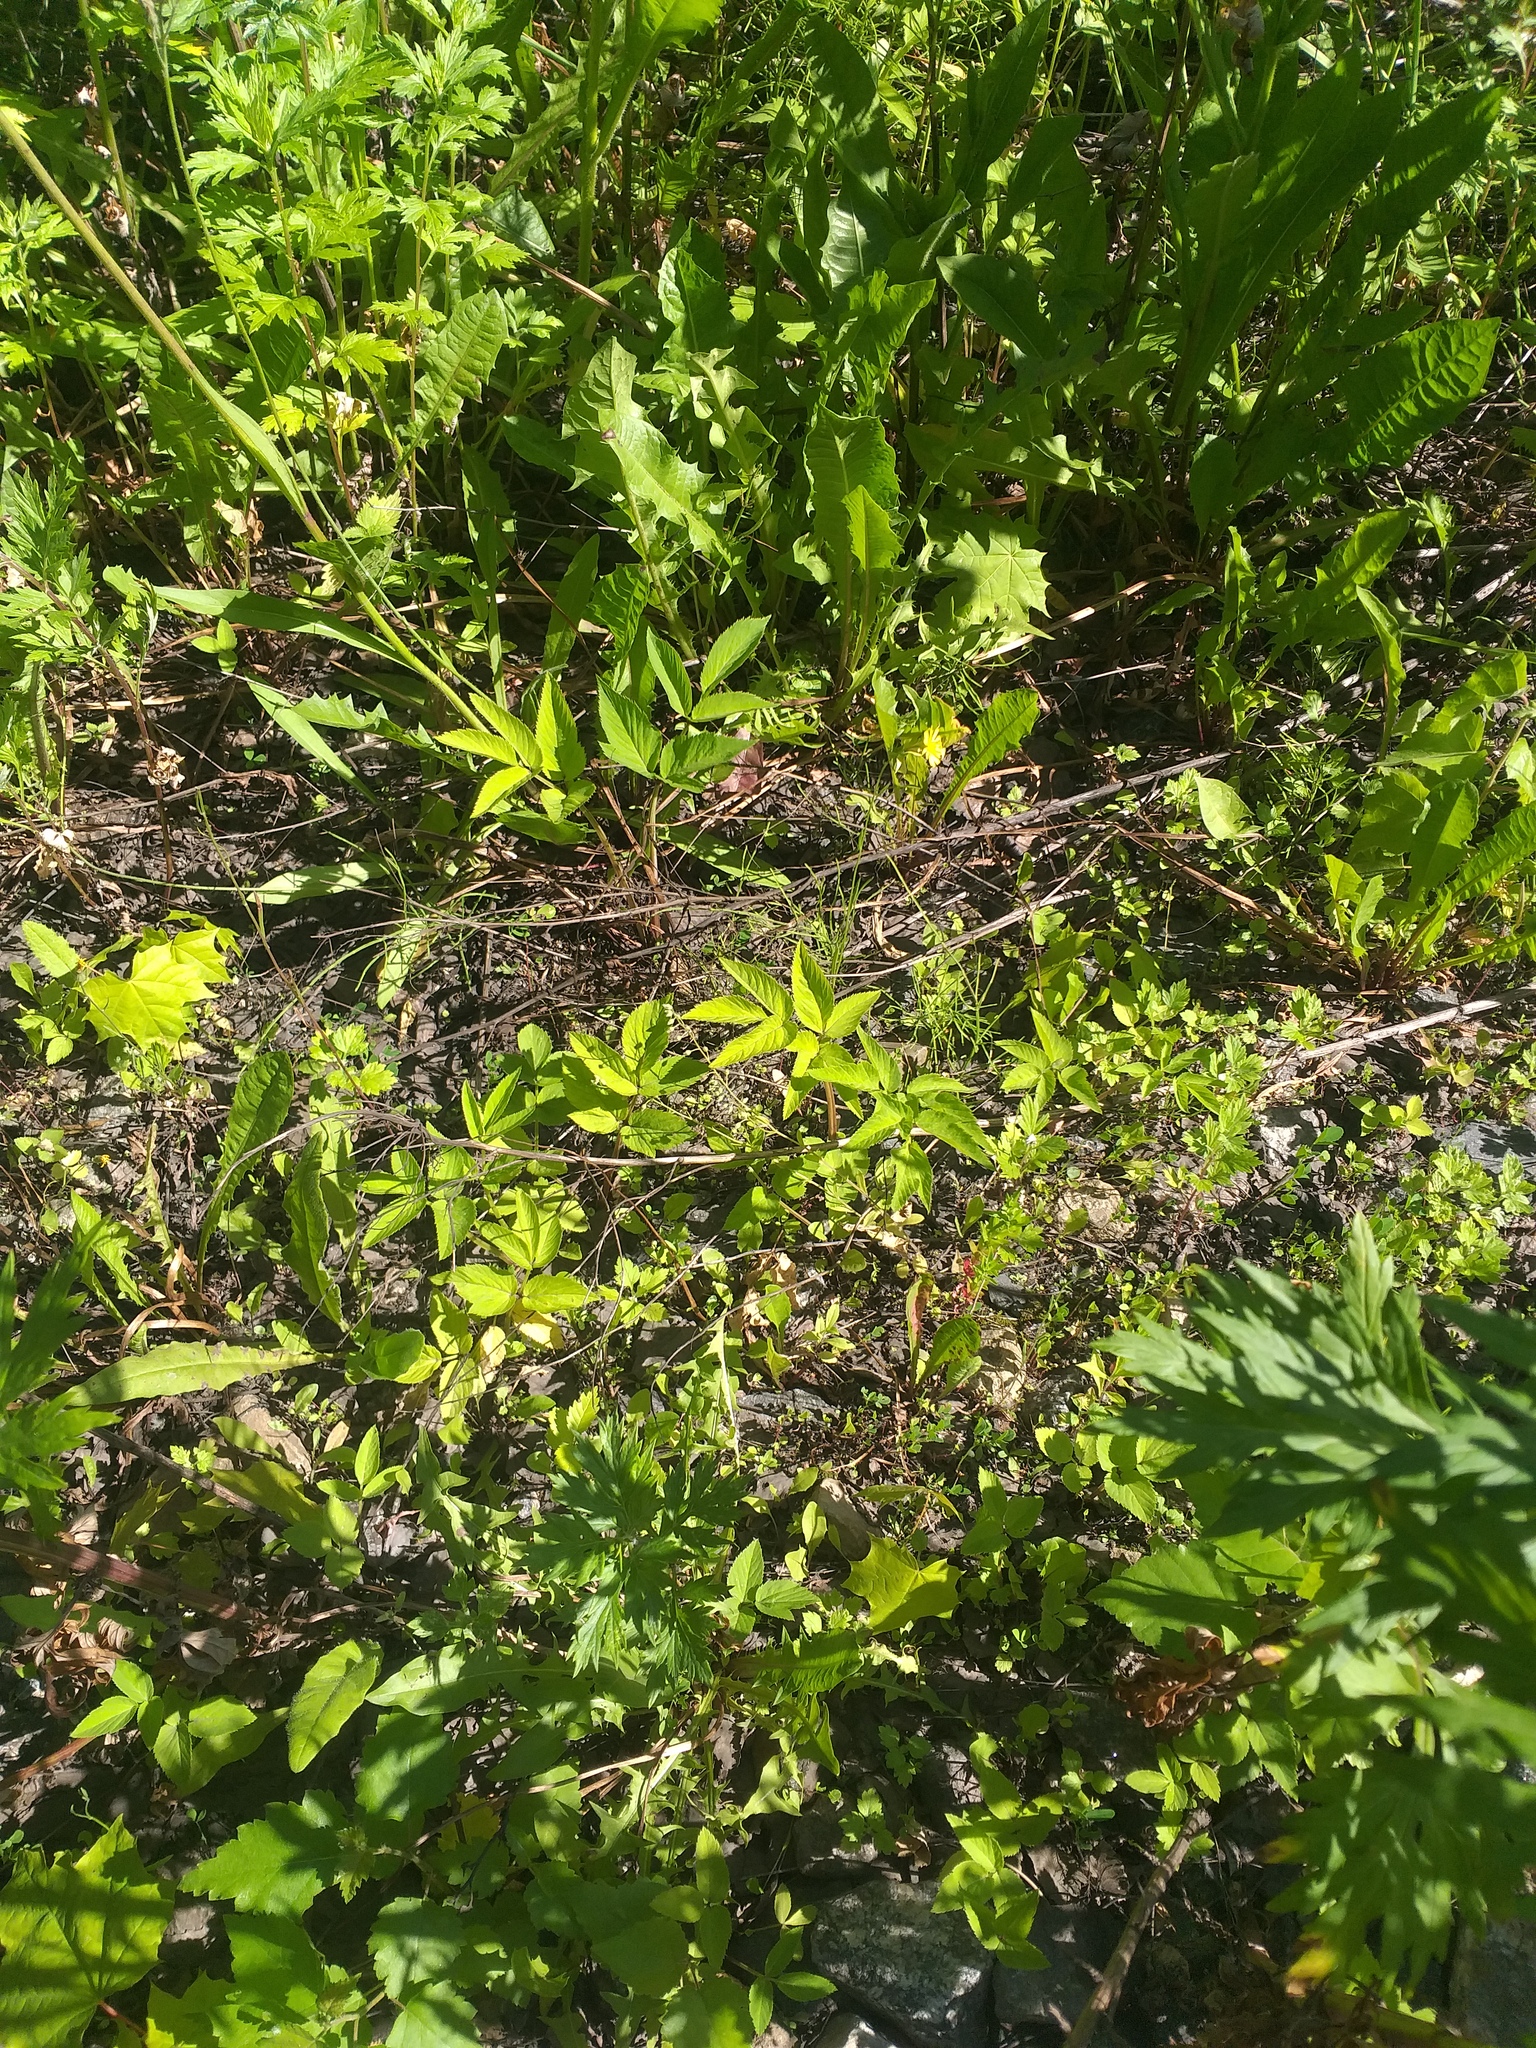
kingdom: Plantae
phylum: Tracheophyta
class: Magnoliopsida
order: Apiales
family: Apiaceae
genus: Aegopodium
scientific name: Aegopodium podagraria
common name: Ground-elder
